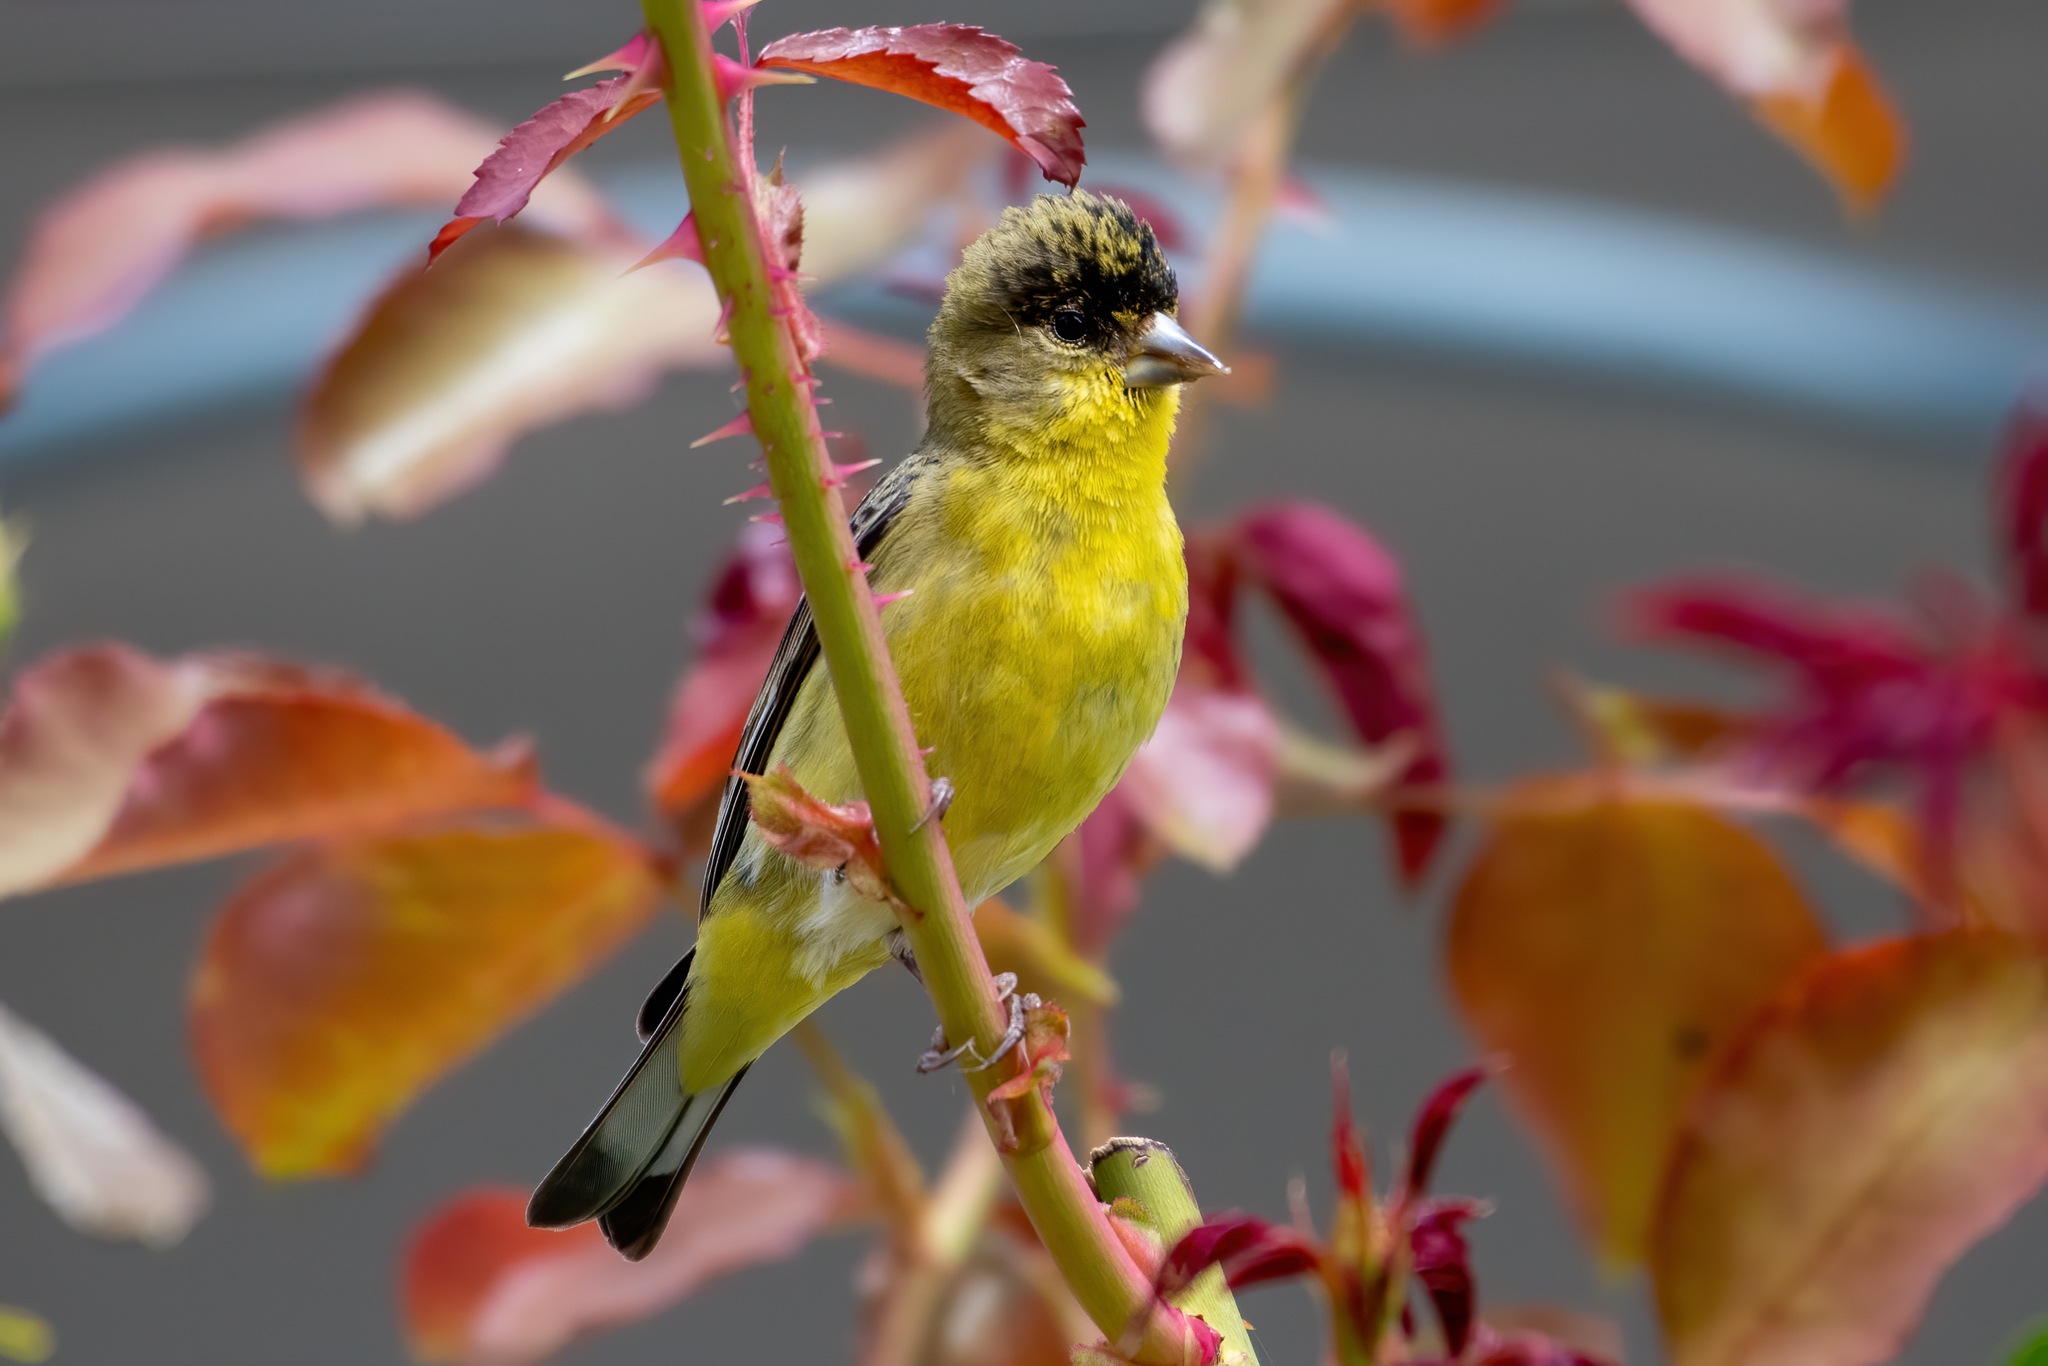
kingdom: Animalia
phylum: Chordata
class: Aves
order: Passeriformes
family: Fringillidae
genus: Spinus
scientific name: Spinus psaltria
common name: Lesser goldfinch
